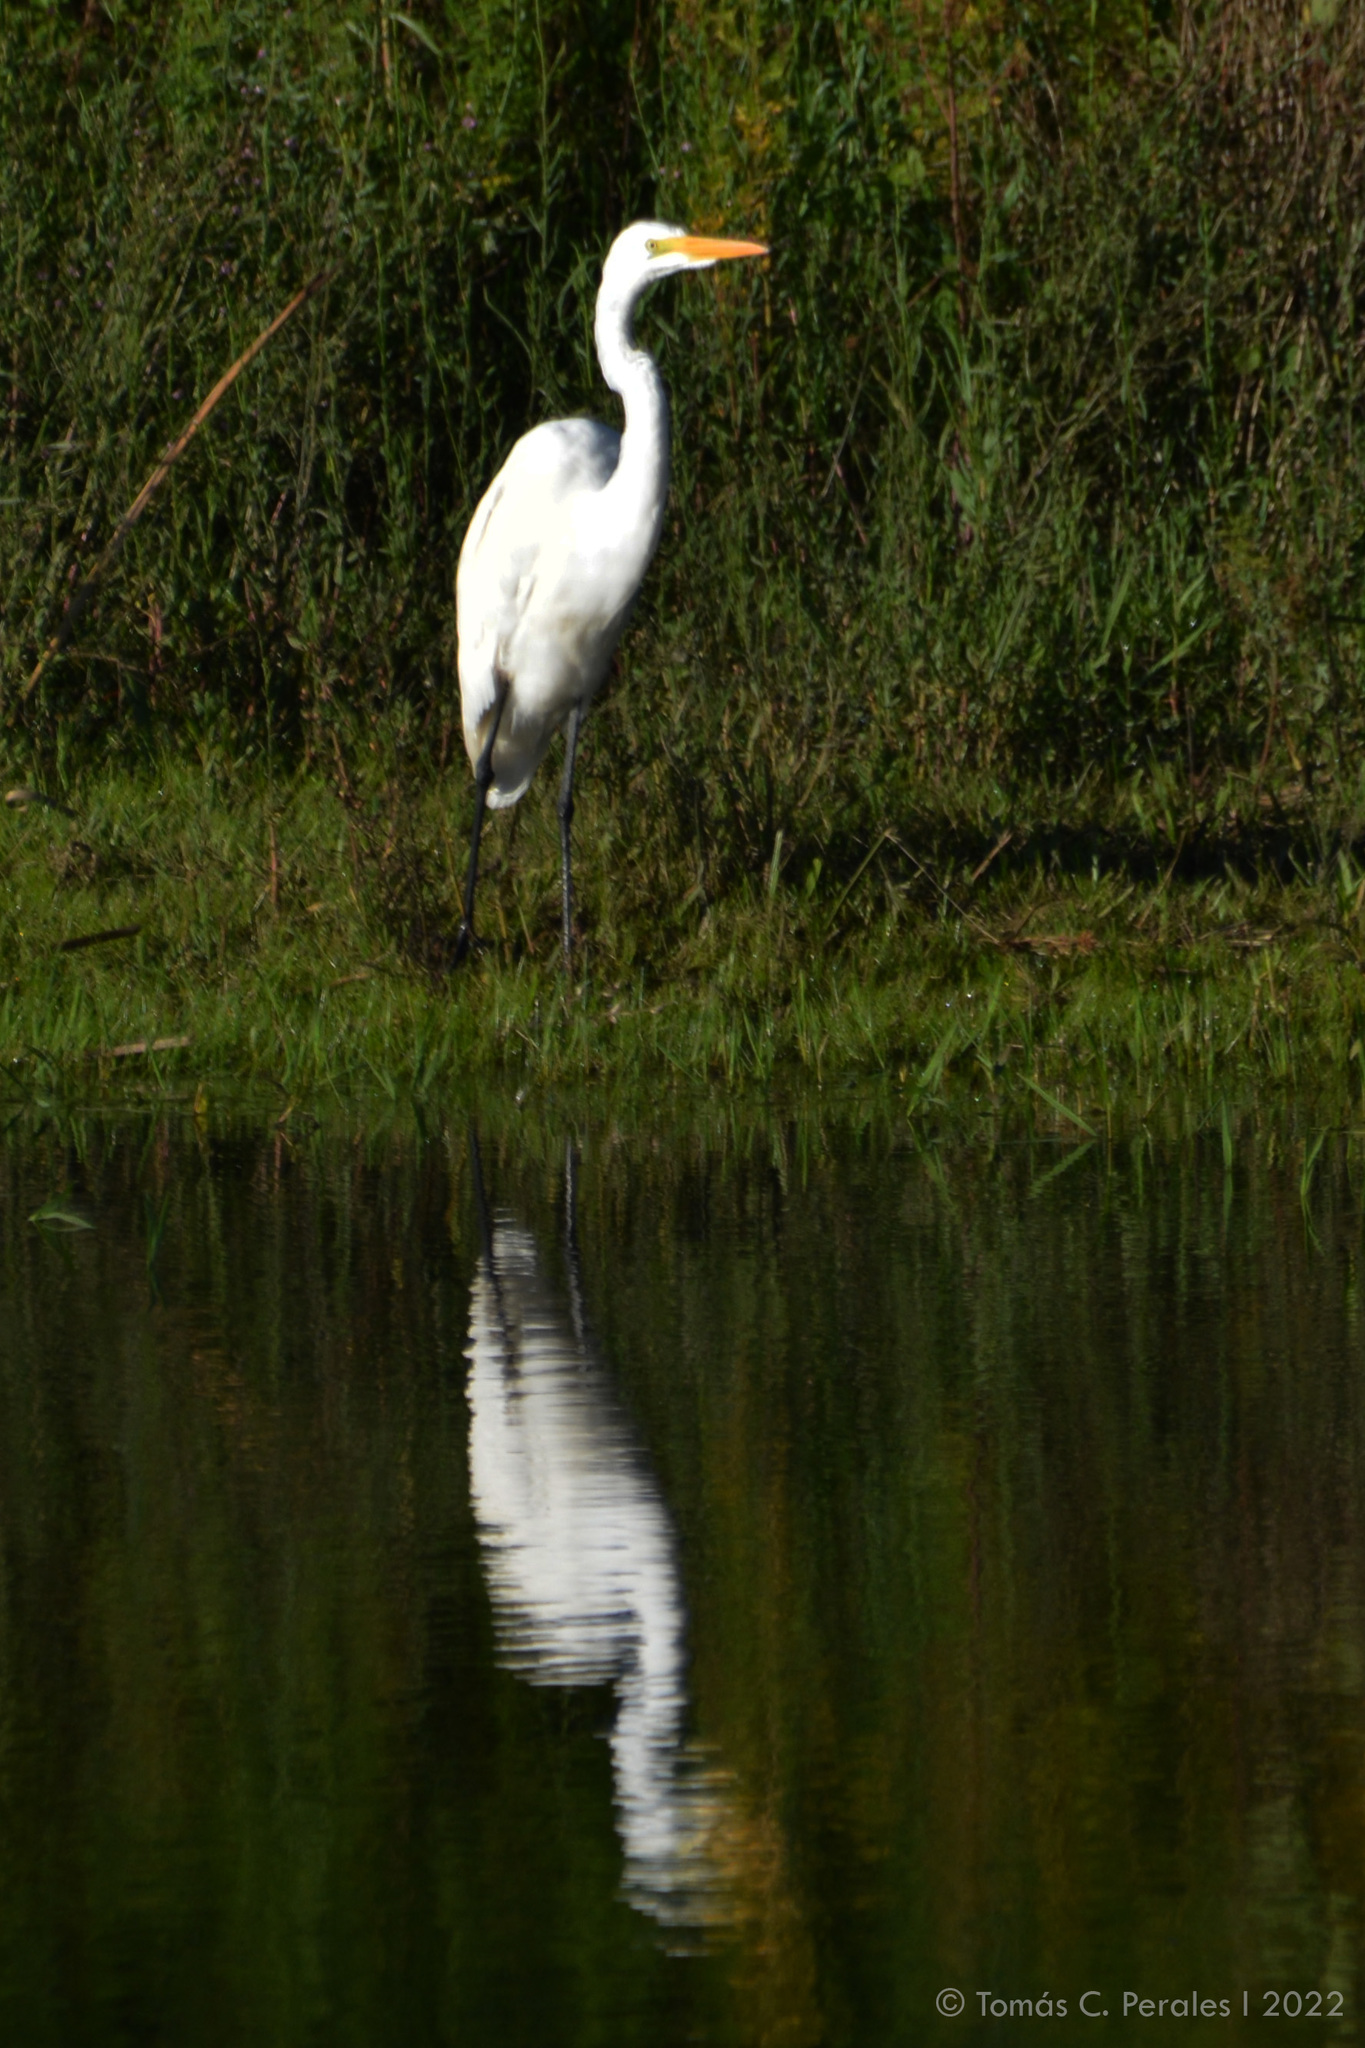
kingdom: Animalia
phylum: Chordata
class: Aves
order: Pelecaniformes
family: Ardeidae
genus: Ardea
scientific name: Ardea alba
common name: Great egret
